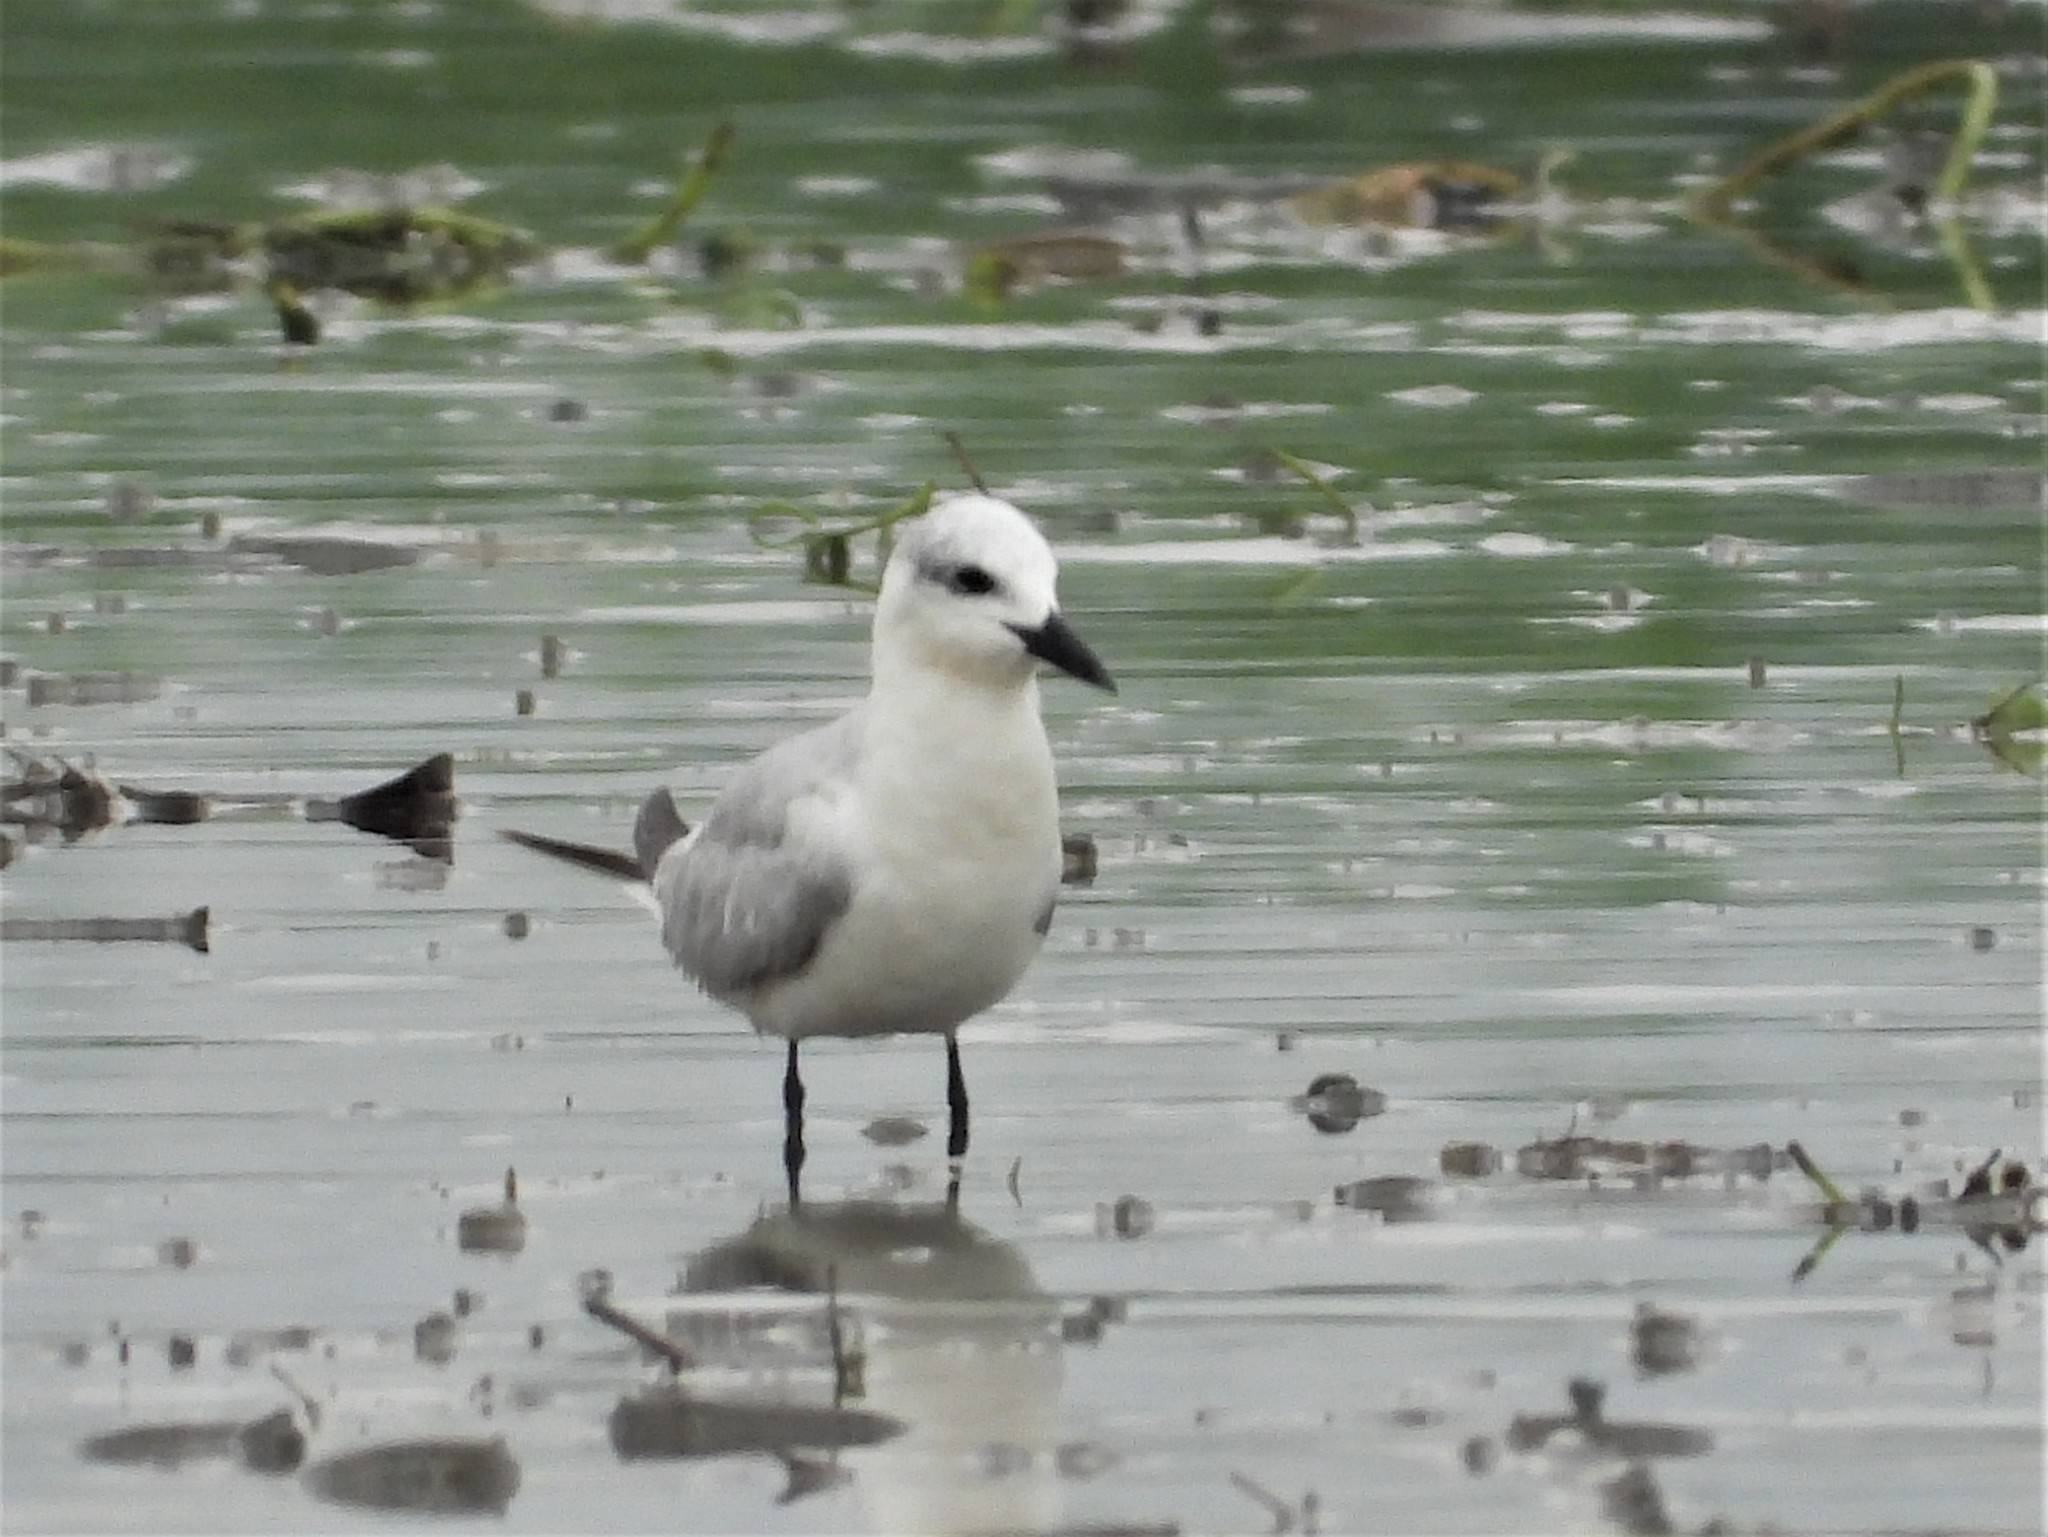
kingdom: Animalia
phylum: Chordata
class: Aves
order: Charadriiformes
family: Laridae
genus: Gelochelidon
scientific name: Gelochelidon nilotica
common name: Gull-billed tern
